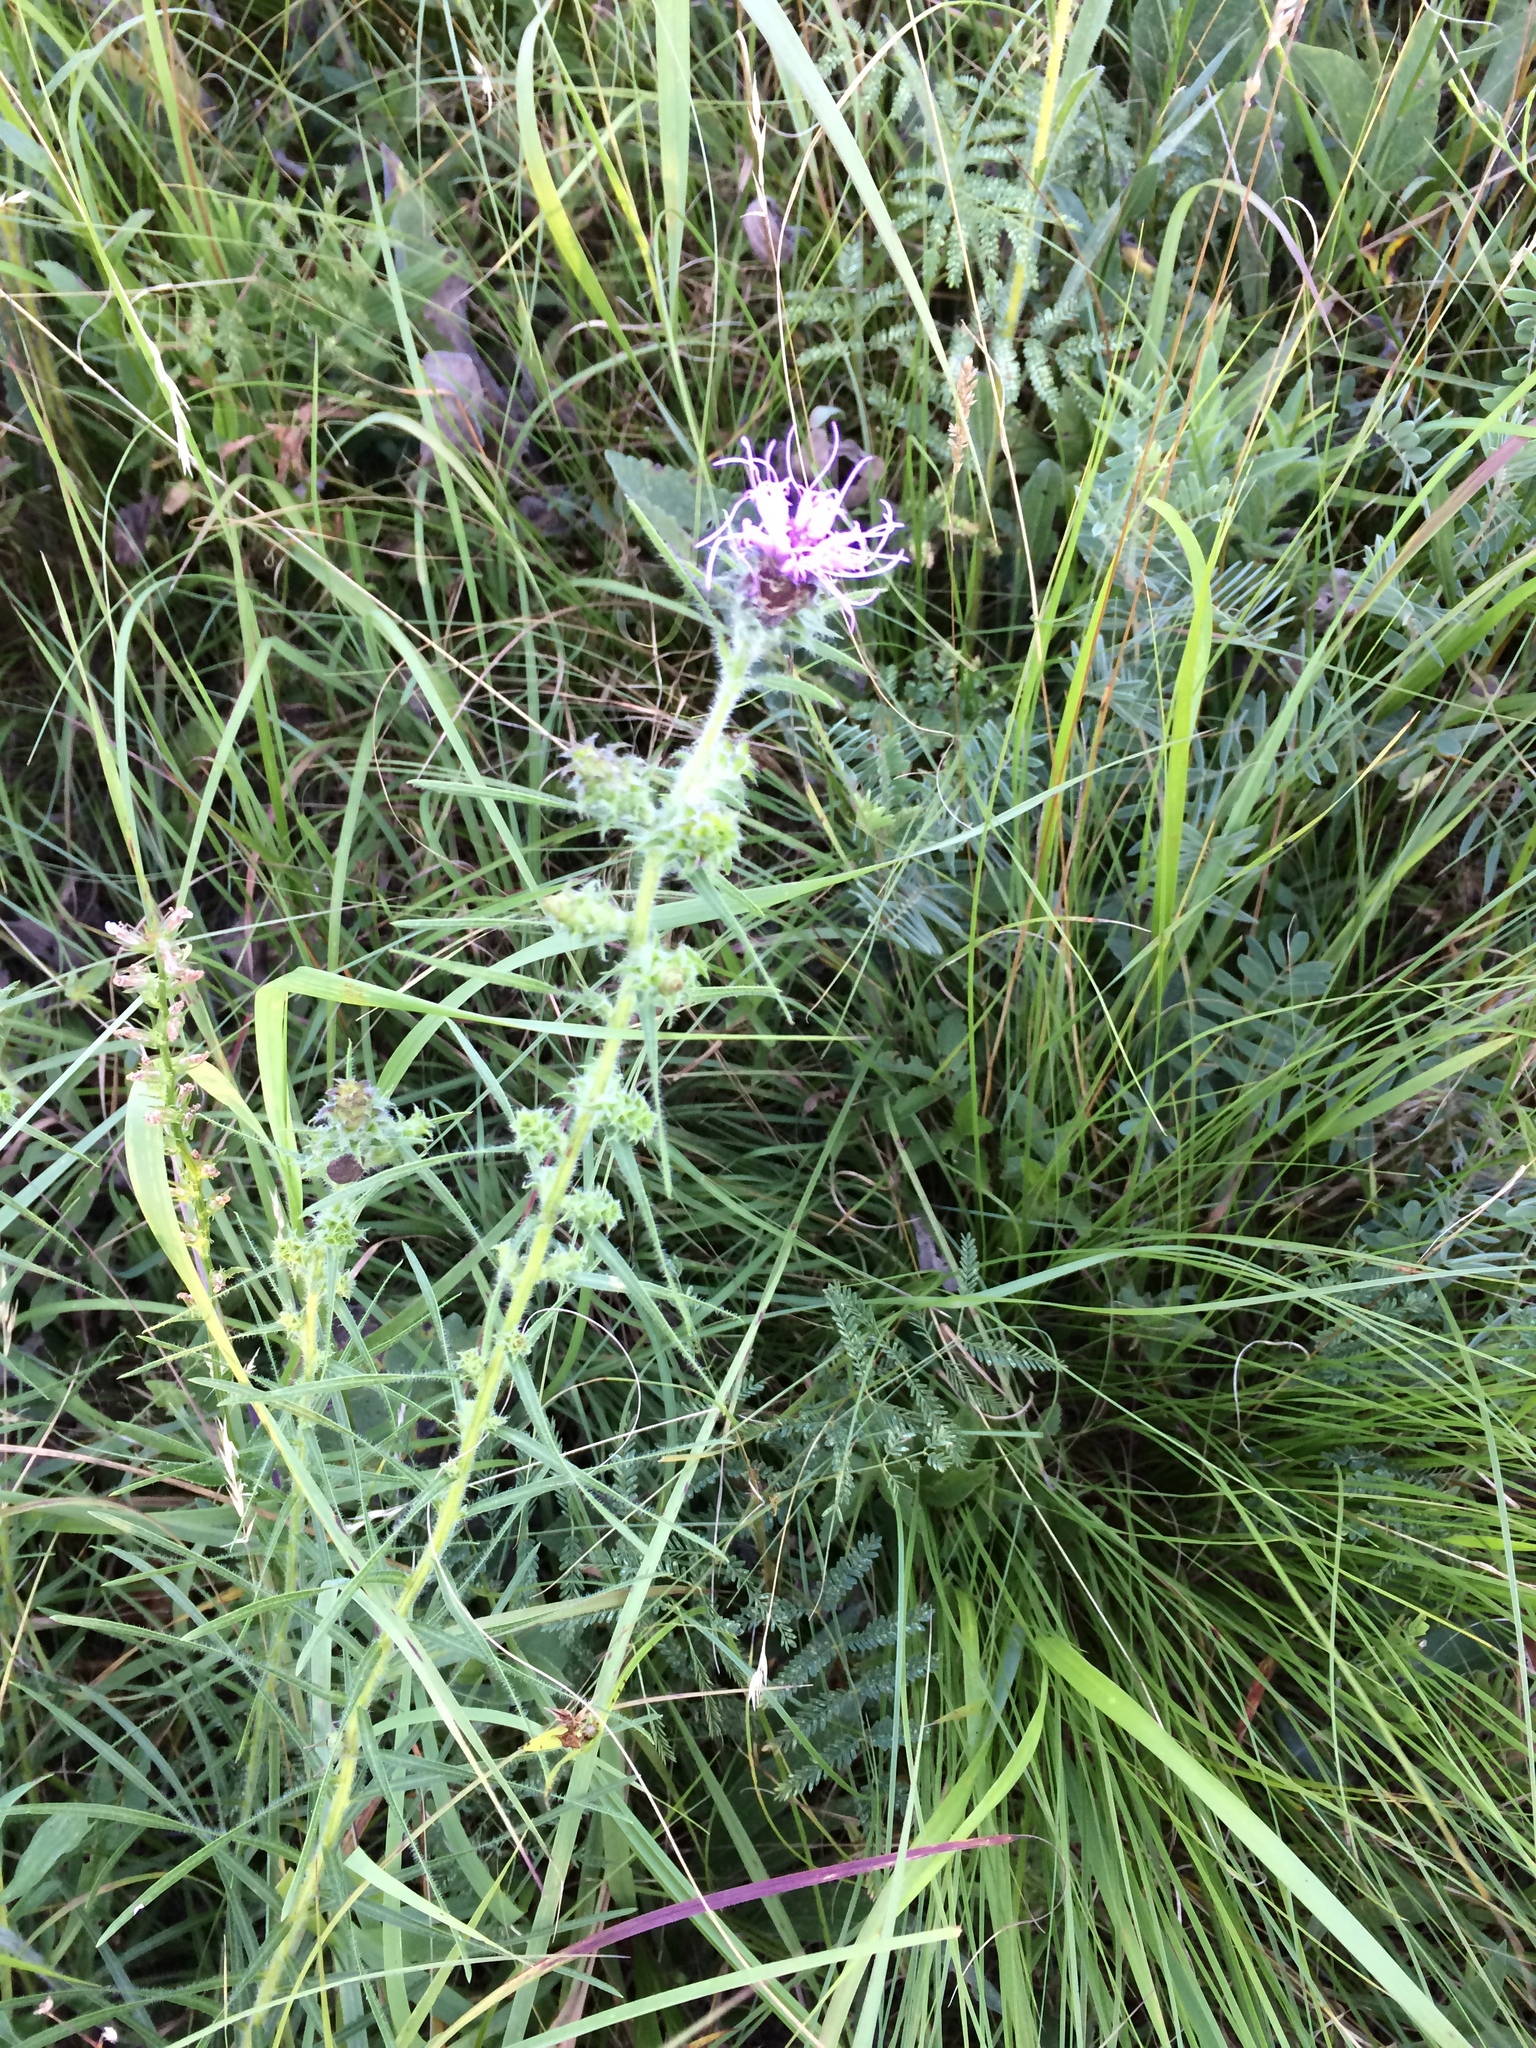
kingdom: Plantae
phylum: Tracheophyta
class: Magnoliopsida
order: Asterales
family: Asteraceae
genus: Liatris
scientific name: Liatris hirsuta
